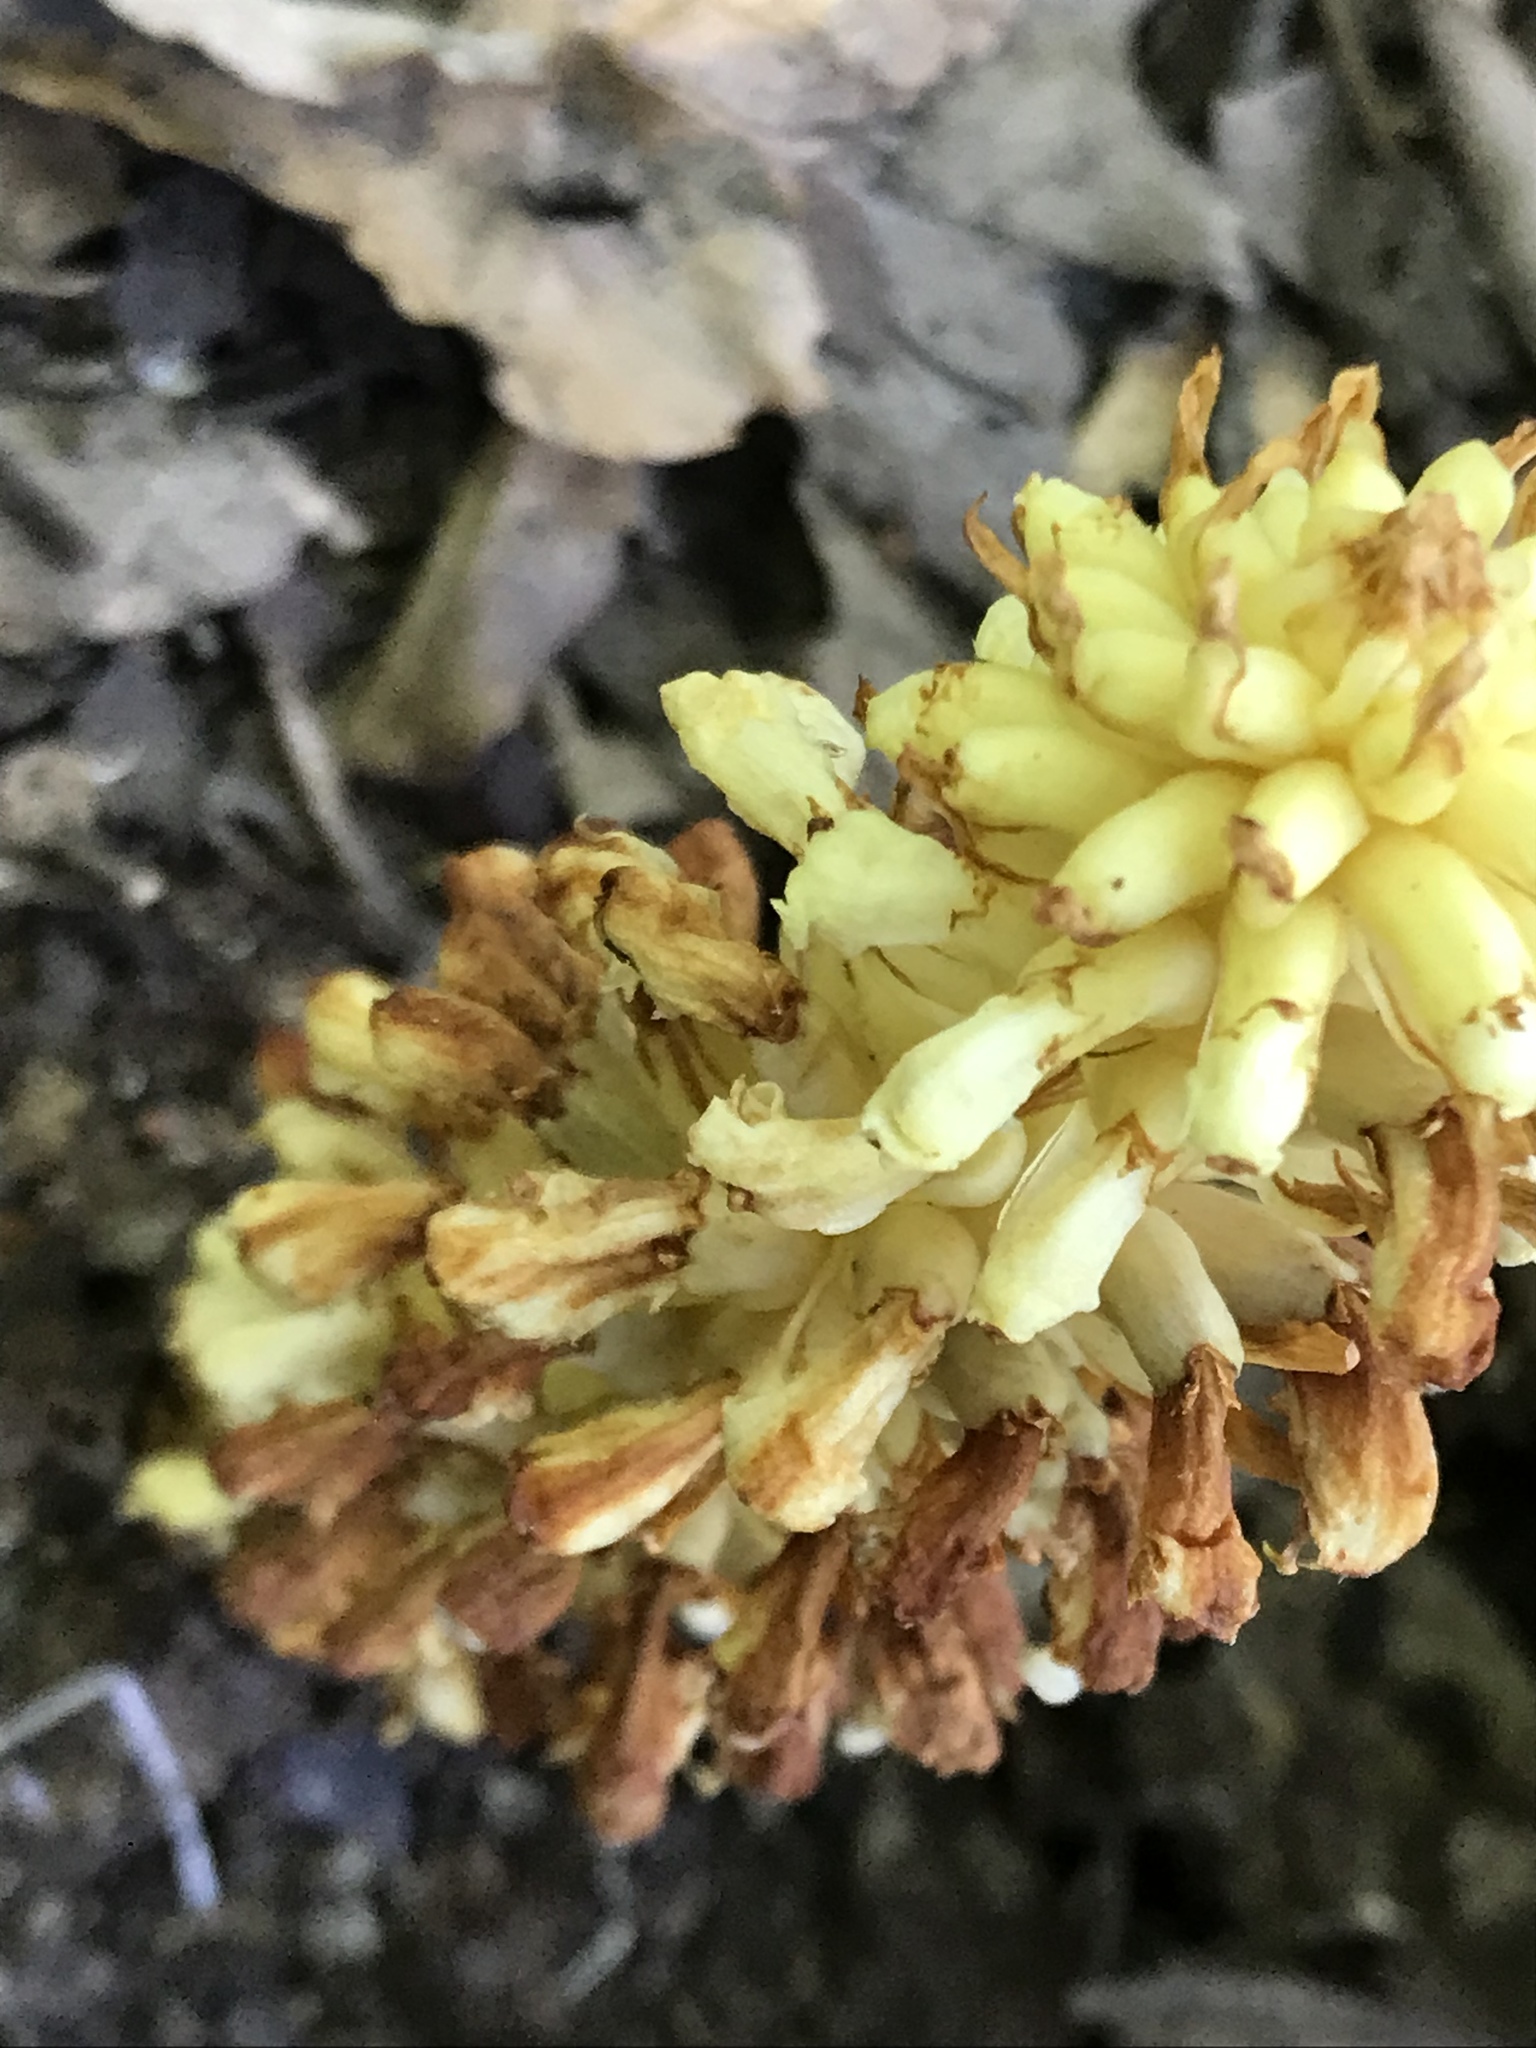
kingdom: Plantae
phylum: Tracheophyta
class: Magnoliopsida
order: Lamiales
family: Orobanchaceae
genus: Conopholis
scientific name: Conopholis alpina
